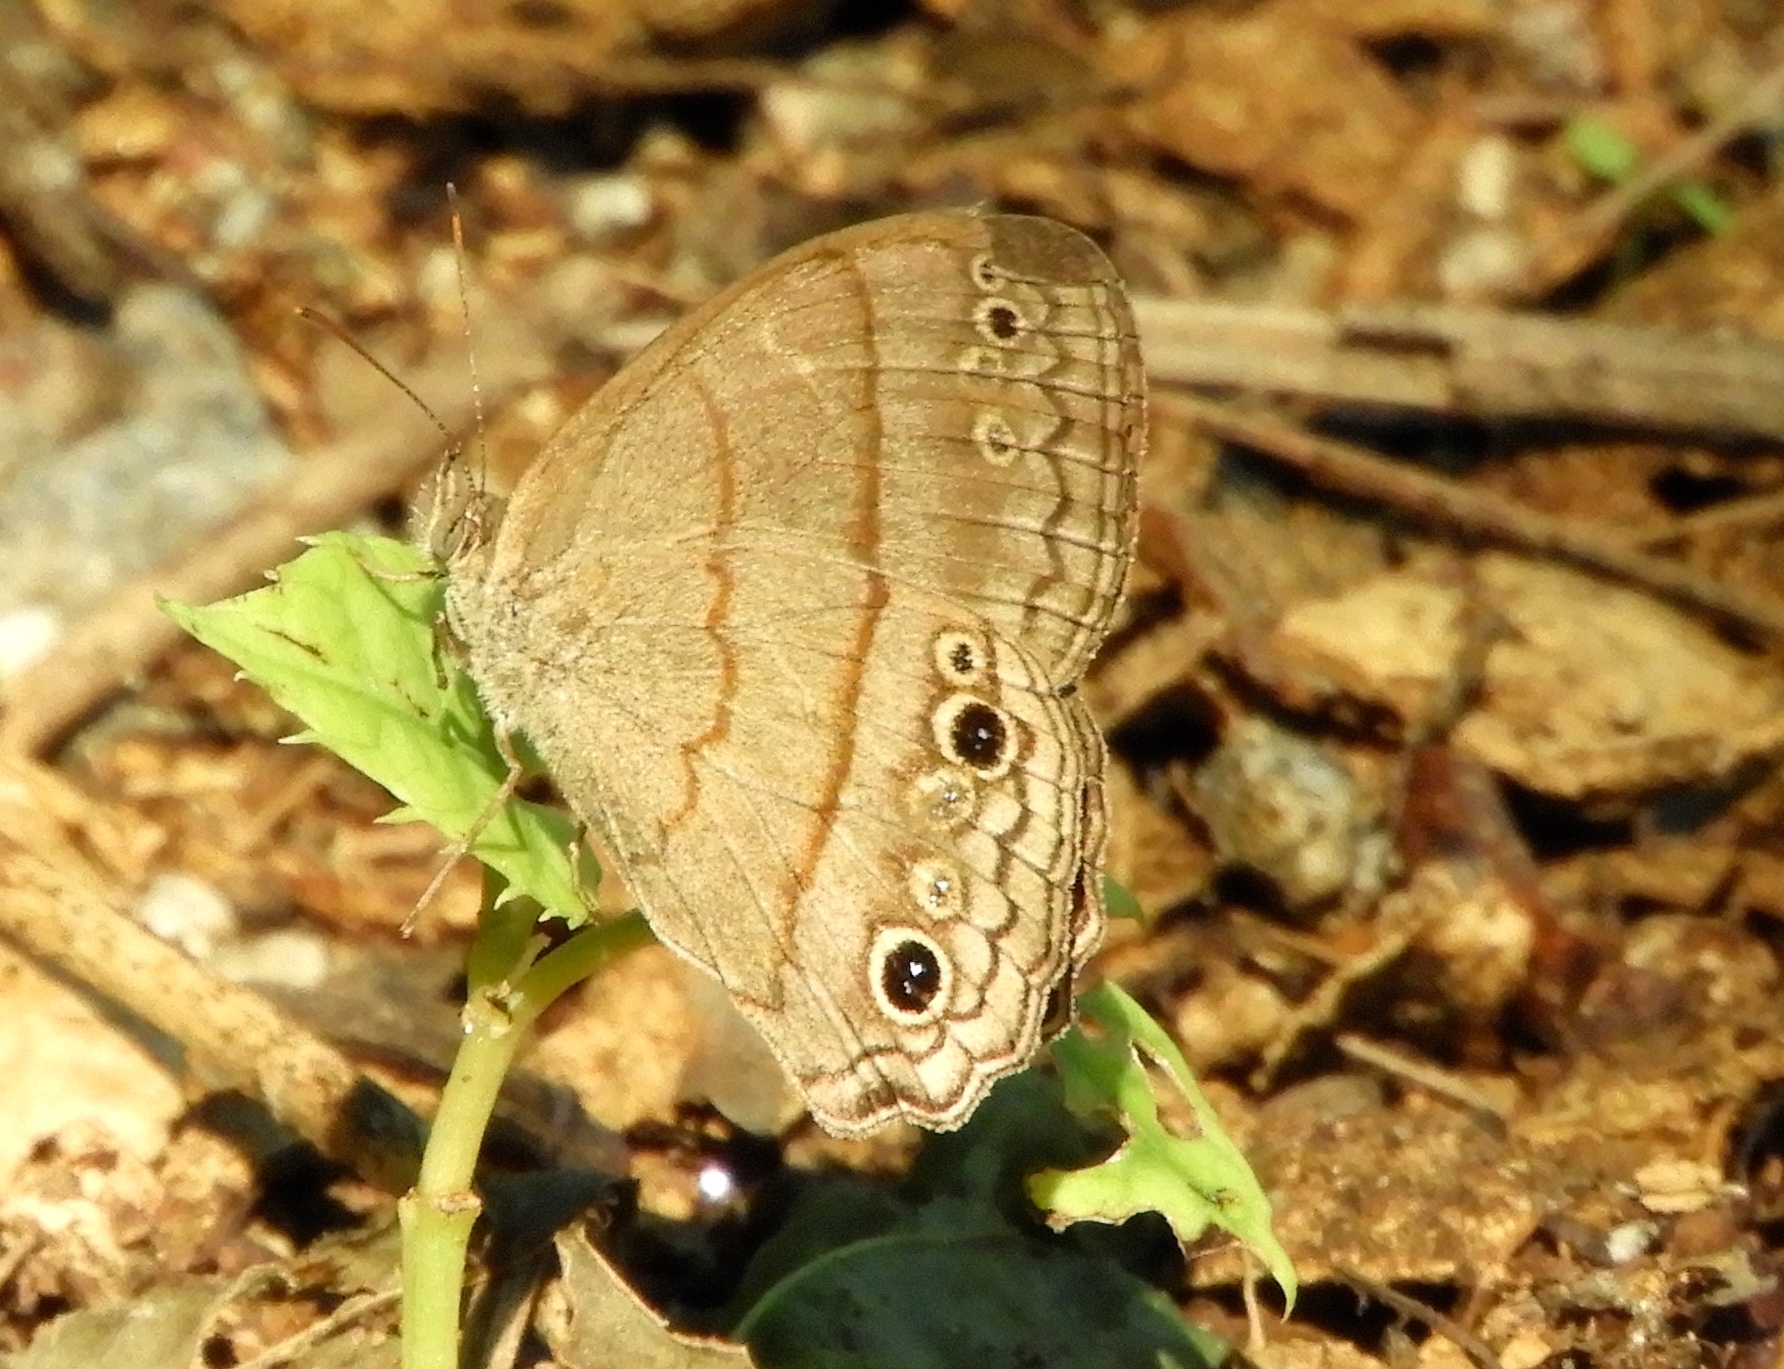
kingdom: Animalia
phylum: Arthropoda
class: Insecta
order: Lepidoptera
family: Nymphalidae
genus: Vareuptychia
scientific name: Vareuptychia similis
